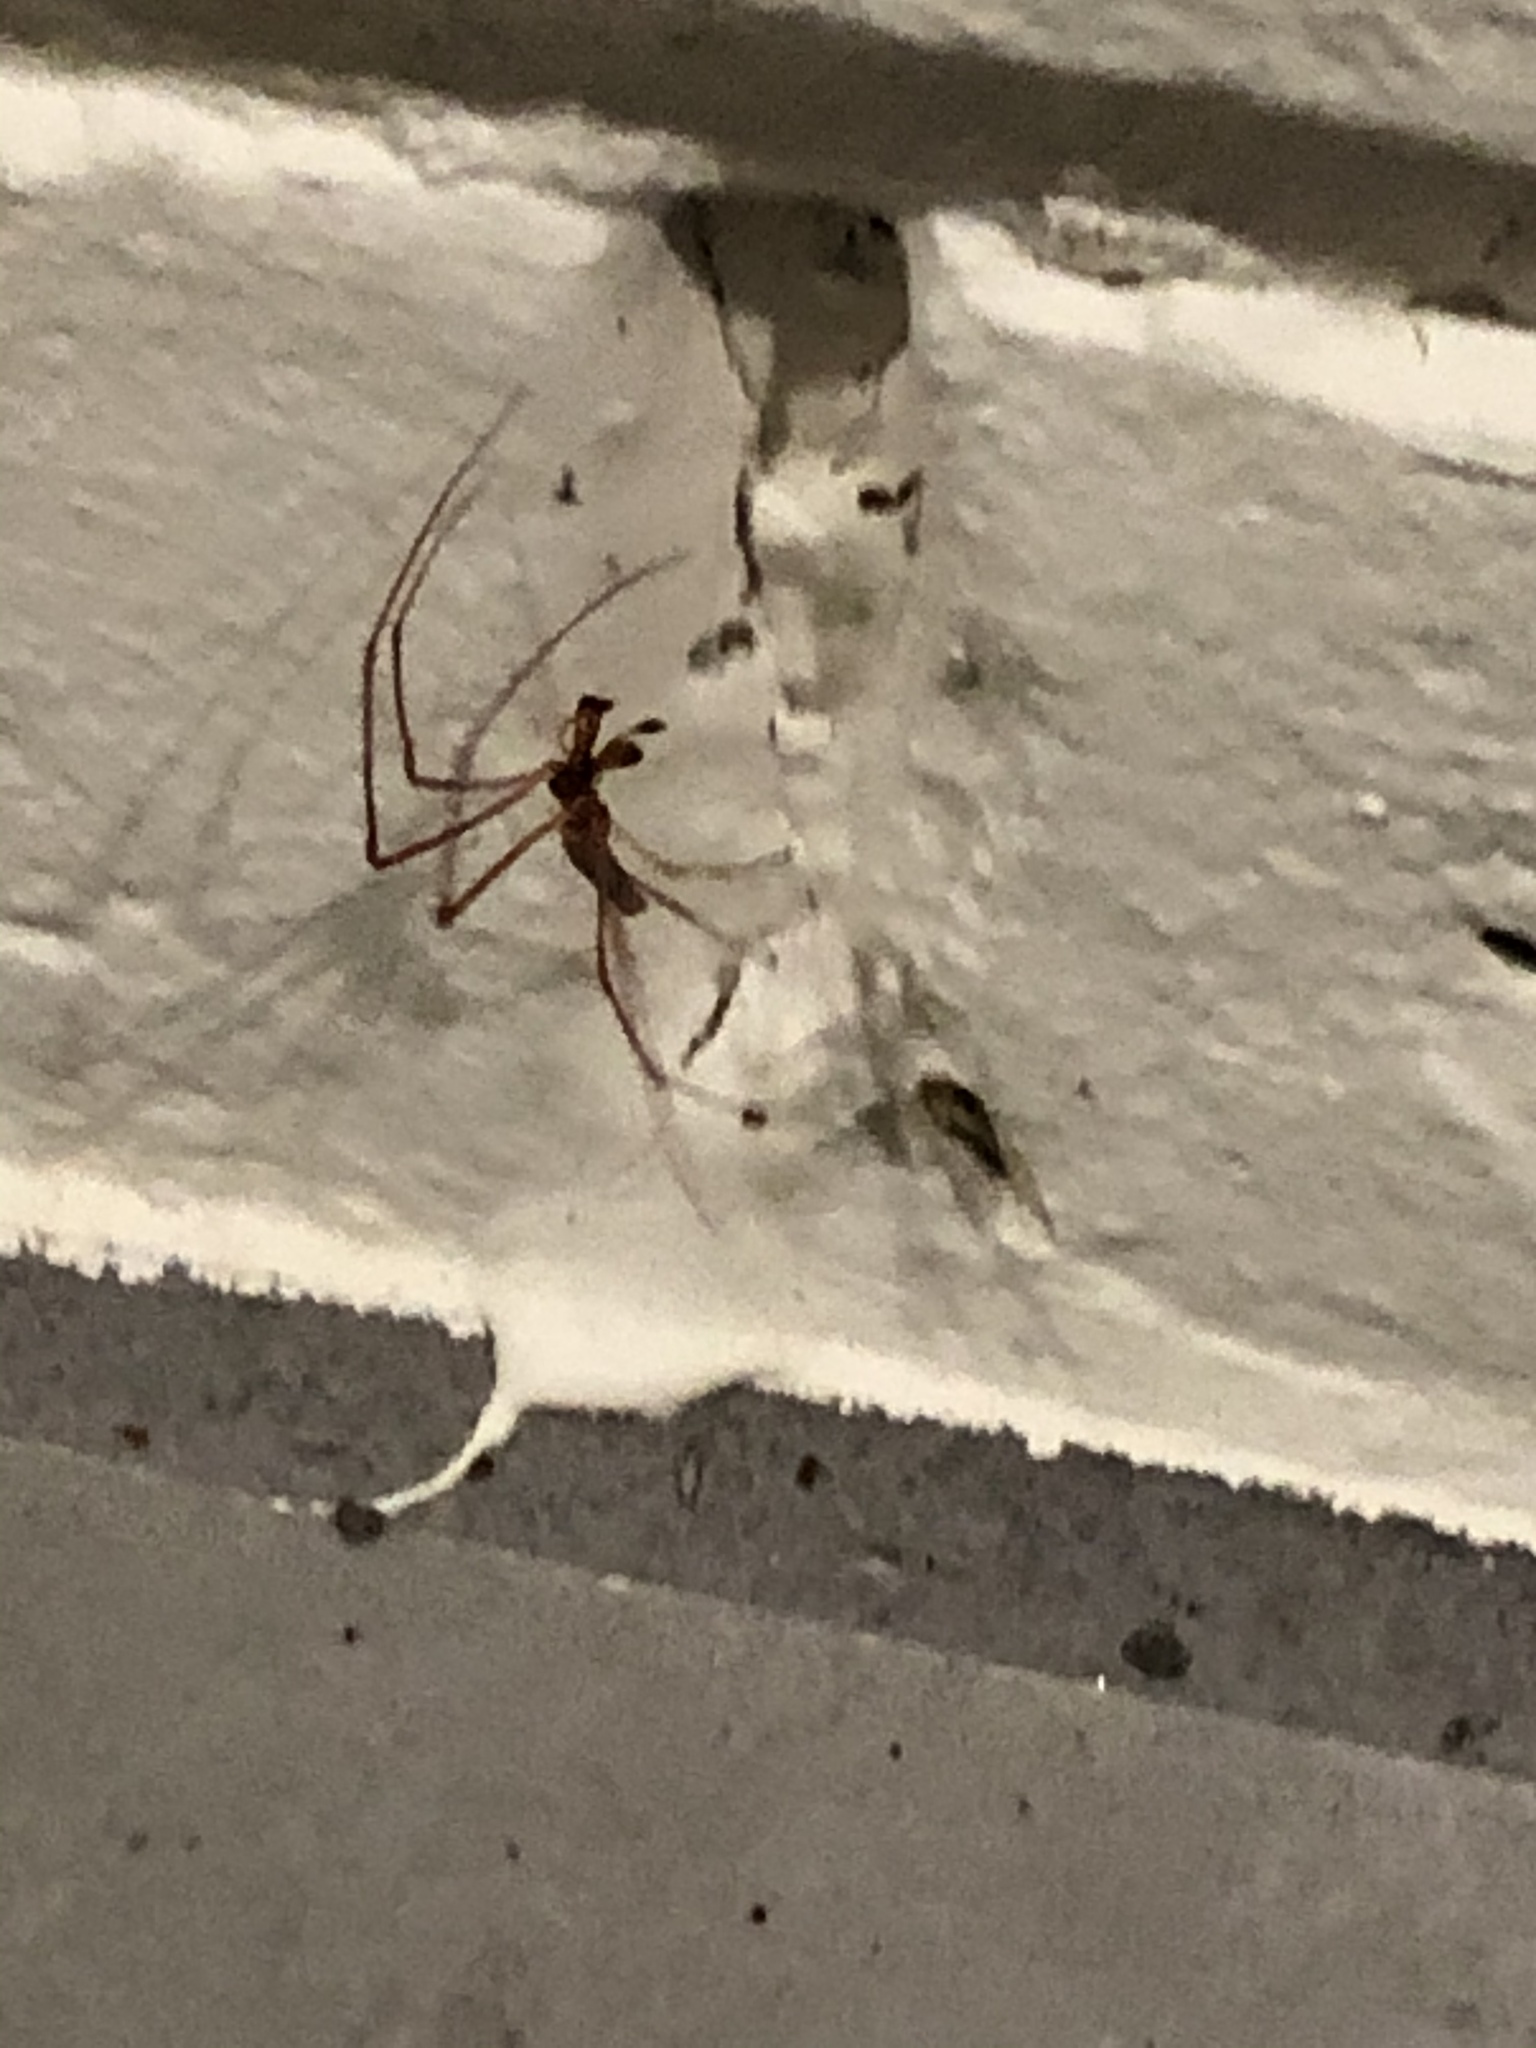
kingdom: Animalia
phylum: Arthropoda
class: Arachnida
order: Araneae
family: Tetragnathidae
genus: Tetragnatha
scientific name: Tetragnatha
